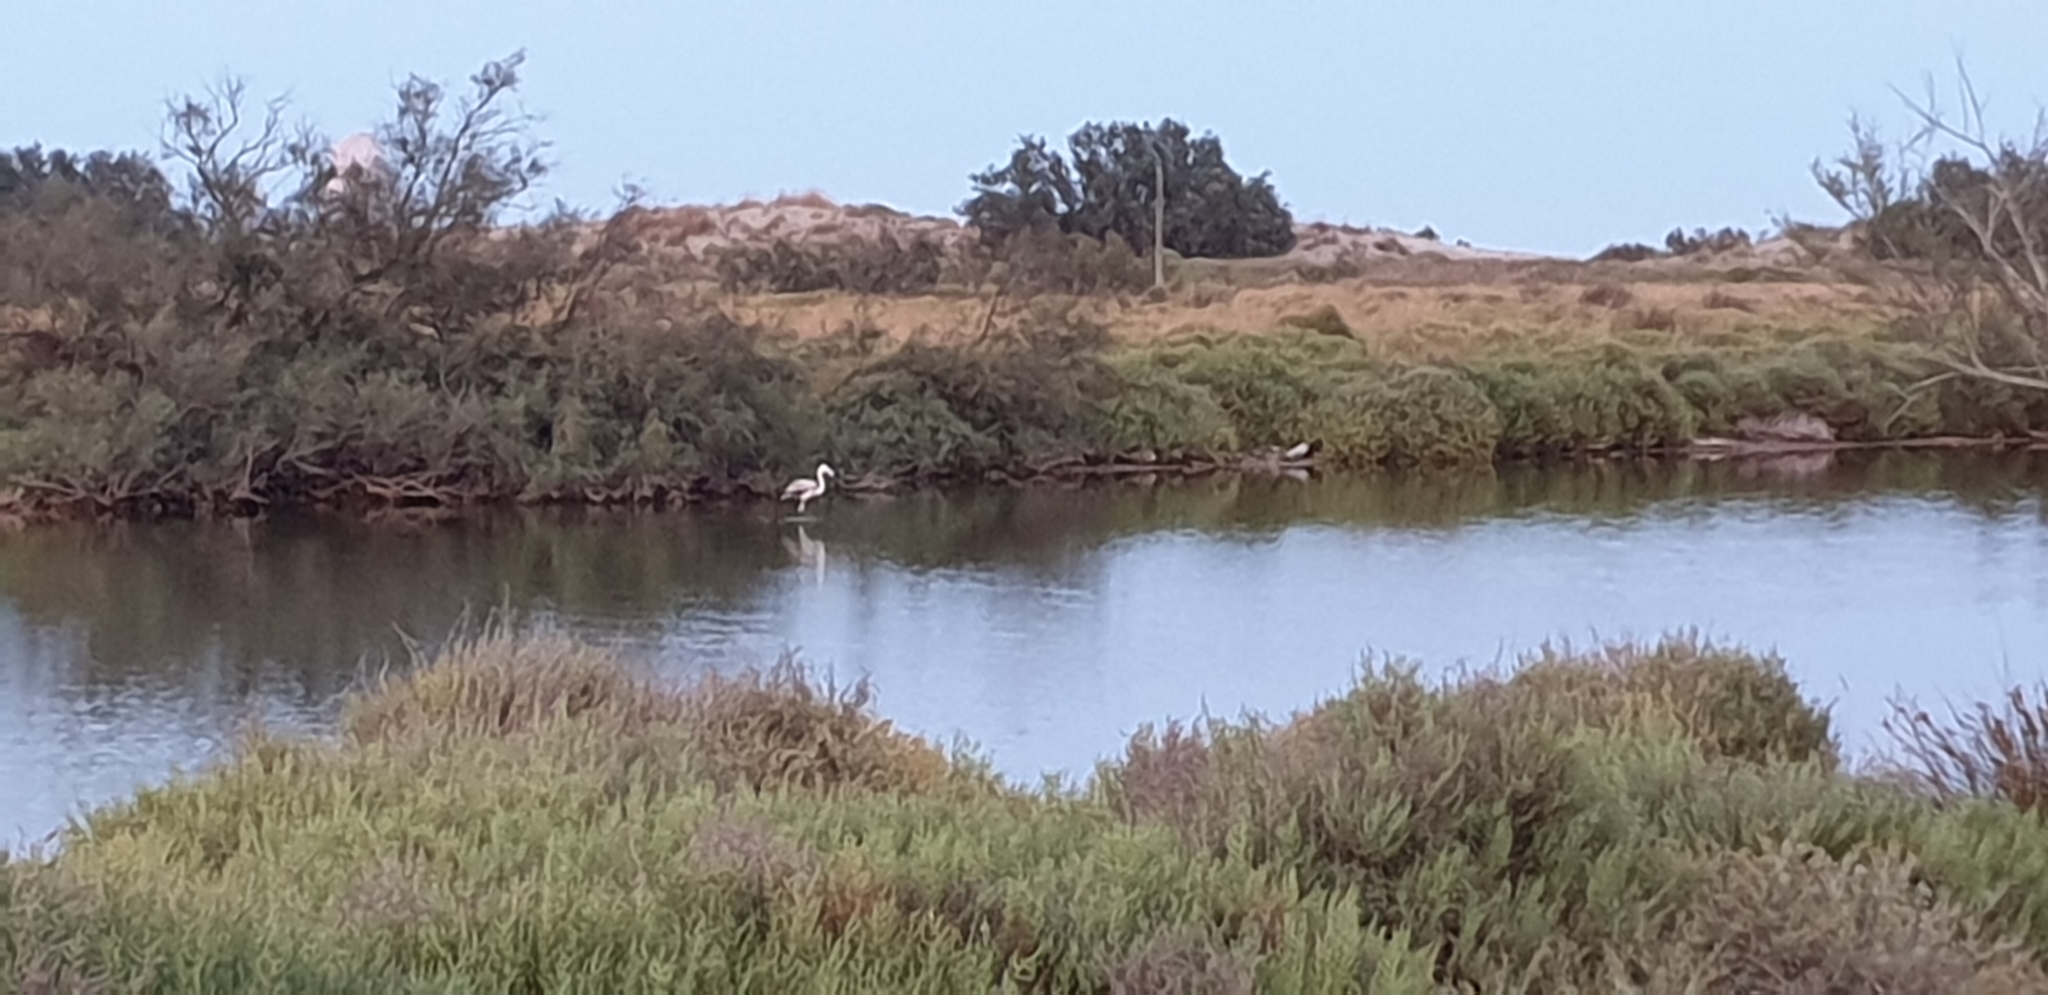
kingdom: Animalia
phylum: Chordata
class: Aves
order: Phoenicopteriformes
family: Phoenicopteridae
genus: Phoenicopterus
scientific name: Phoenicopterus roseus
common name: Greater flamingo
